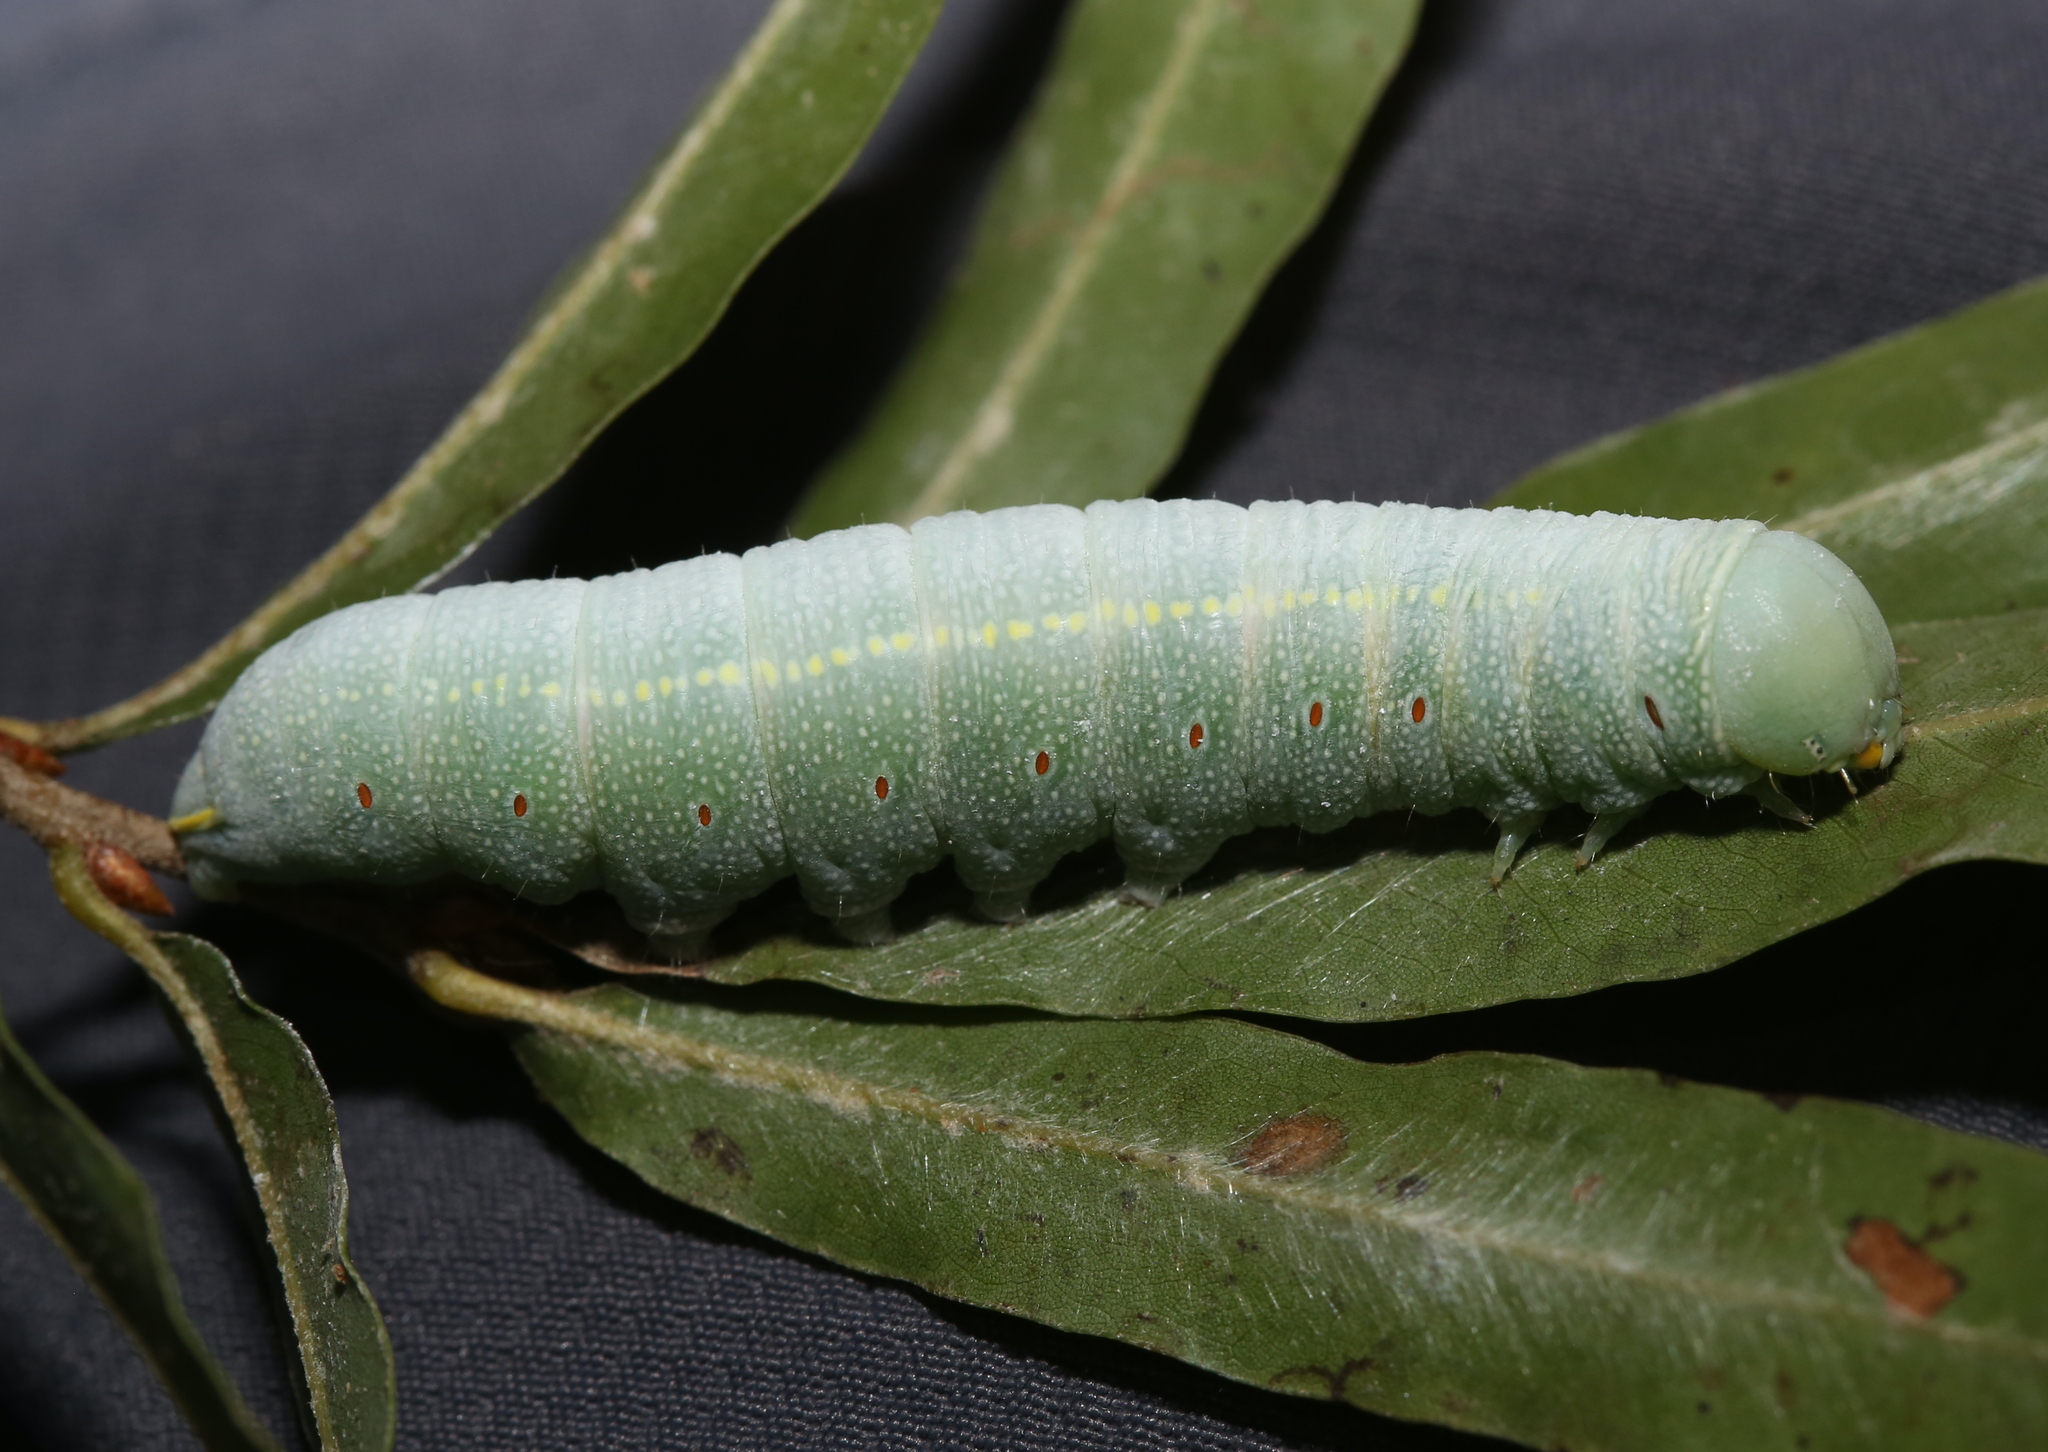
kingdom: Animalia
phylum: Arthropoda
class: Insecta
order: Lepidoptera
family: Notodontidae
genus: Nadata
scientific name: Nadata gibbosa
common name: White-dotted prominent
